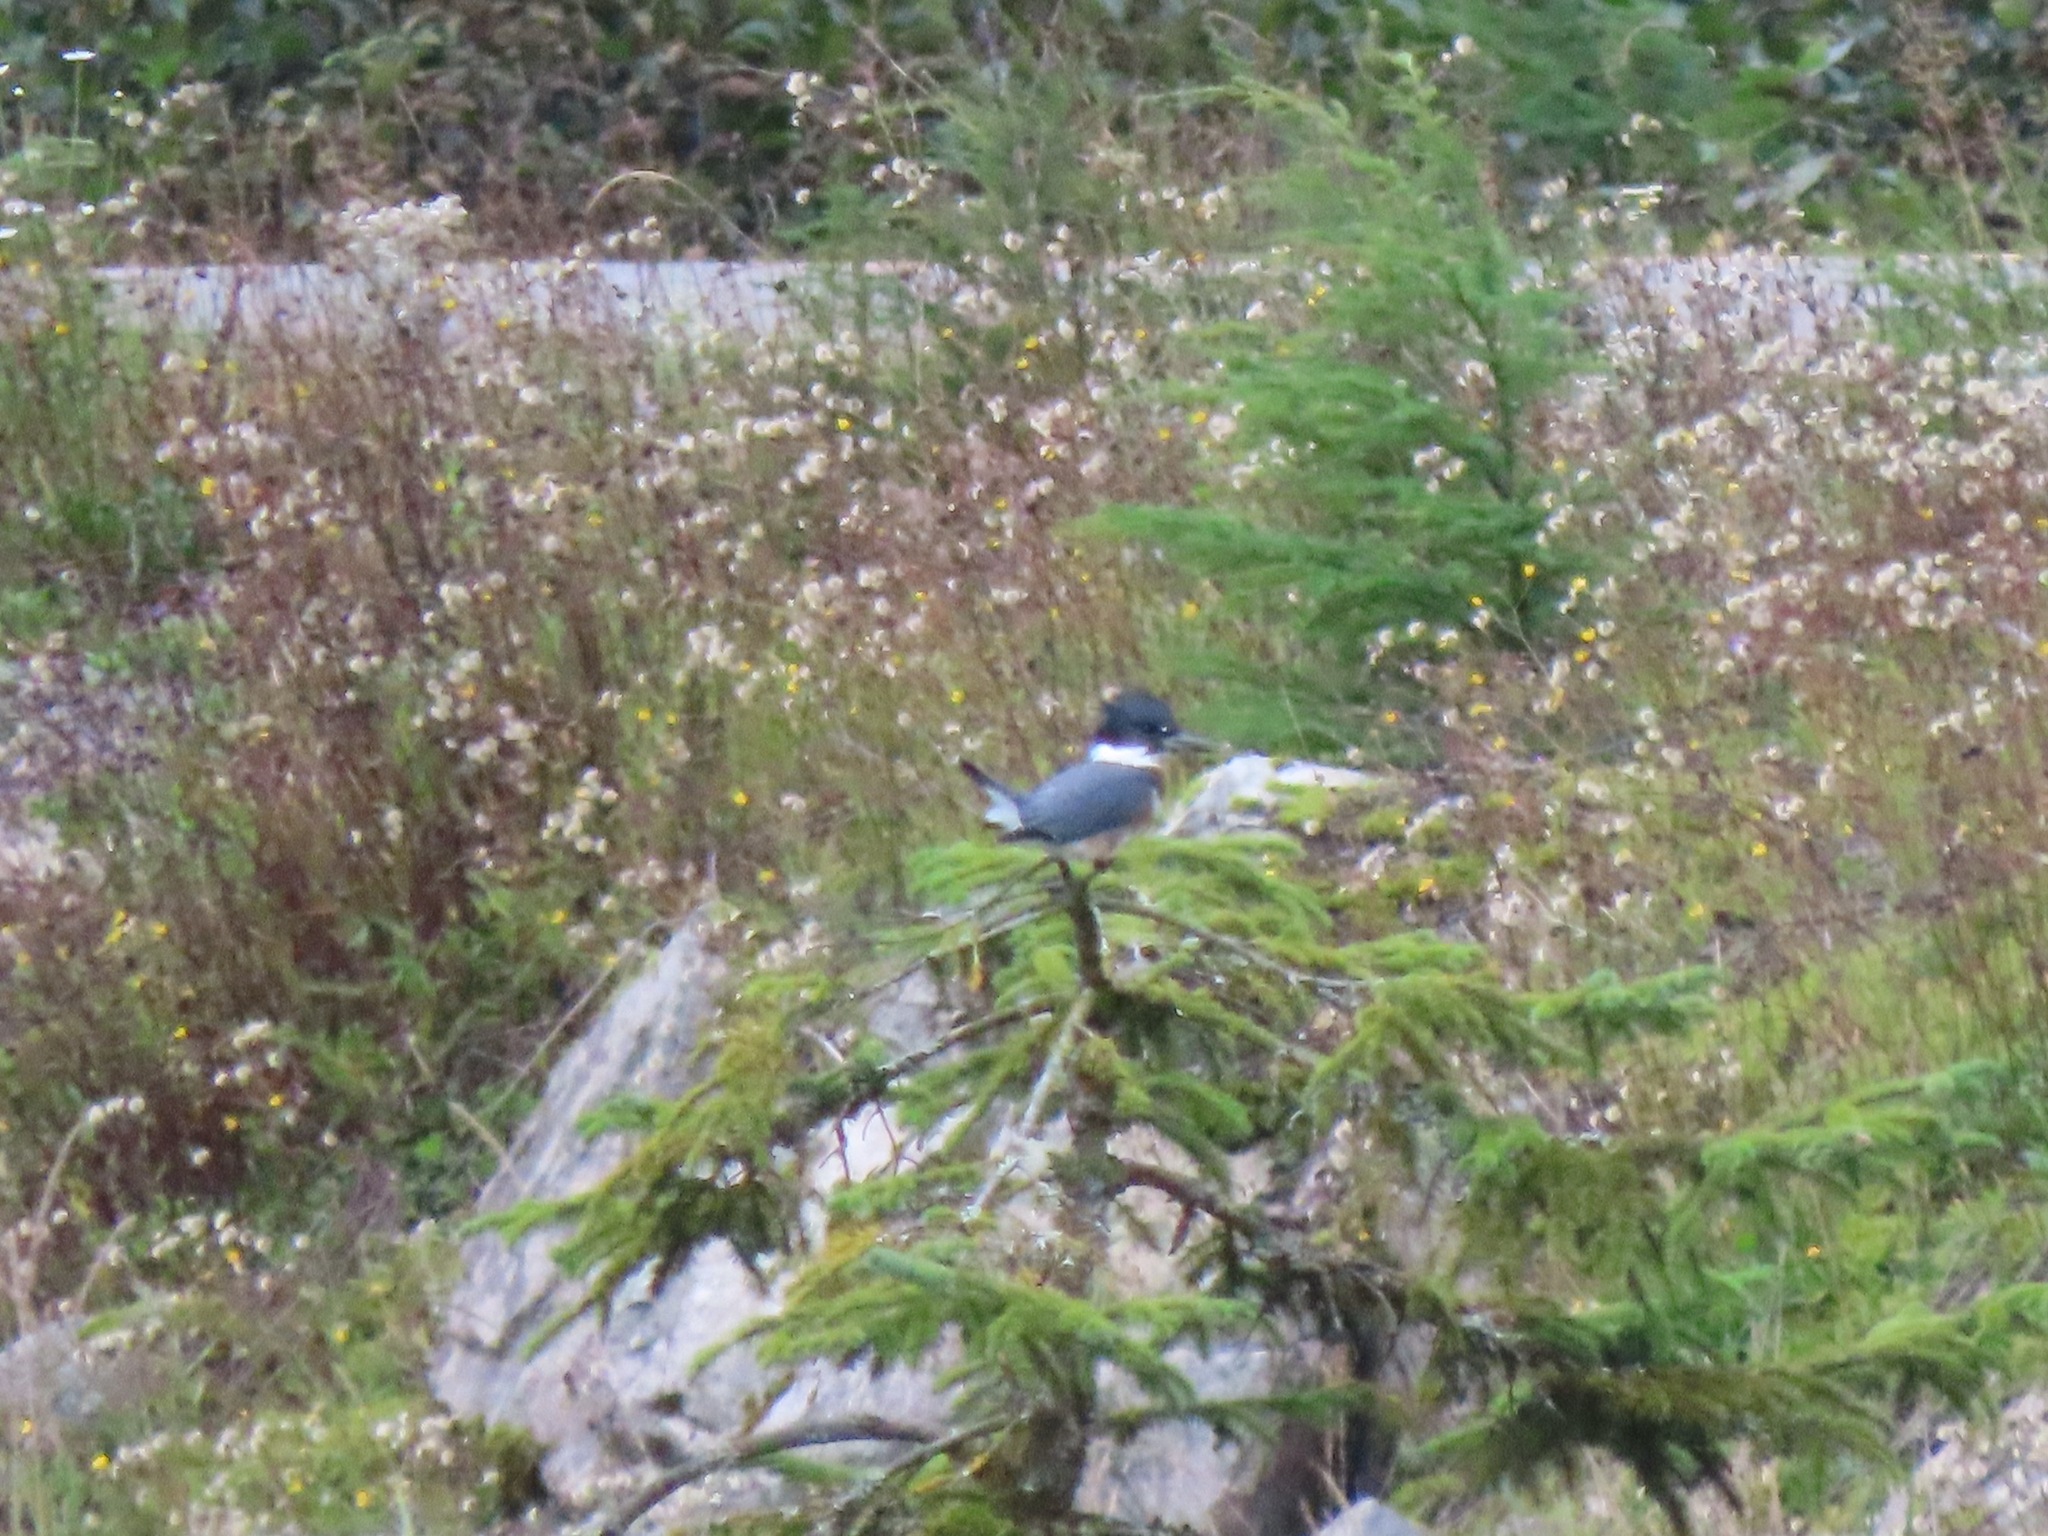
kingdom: Animalia
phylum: Chordata
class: Aves
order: Coraciiformes
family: Alcedinidae
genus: Megaceryle
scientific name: Megaceryle alcyon
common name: Belted kingfisher
